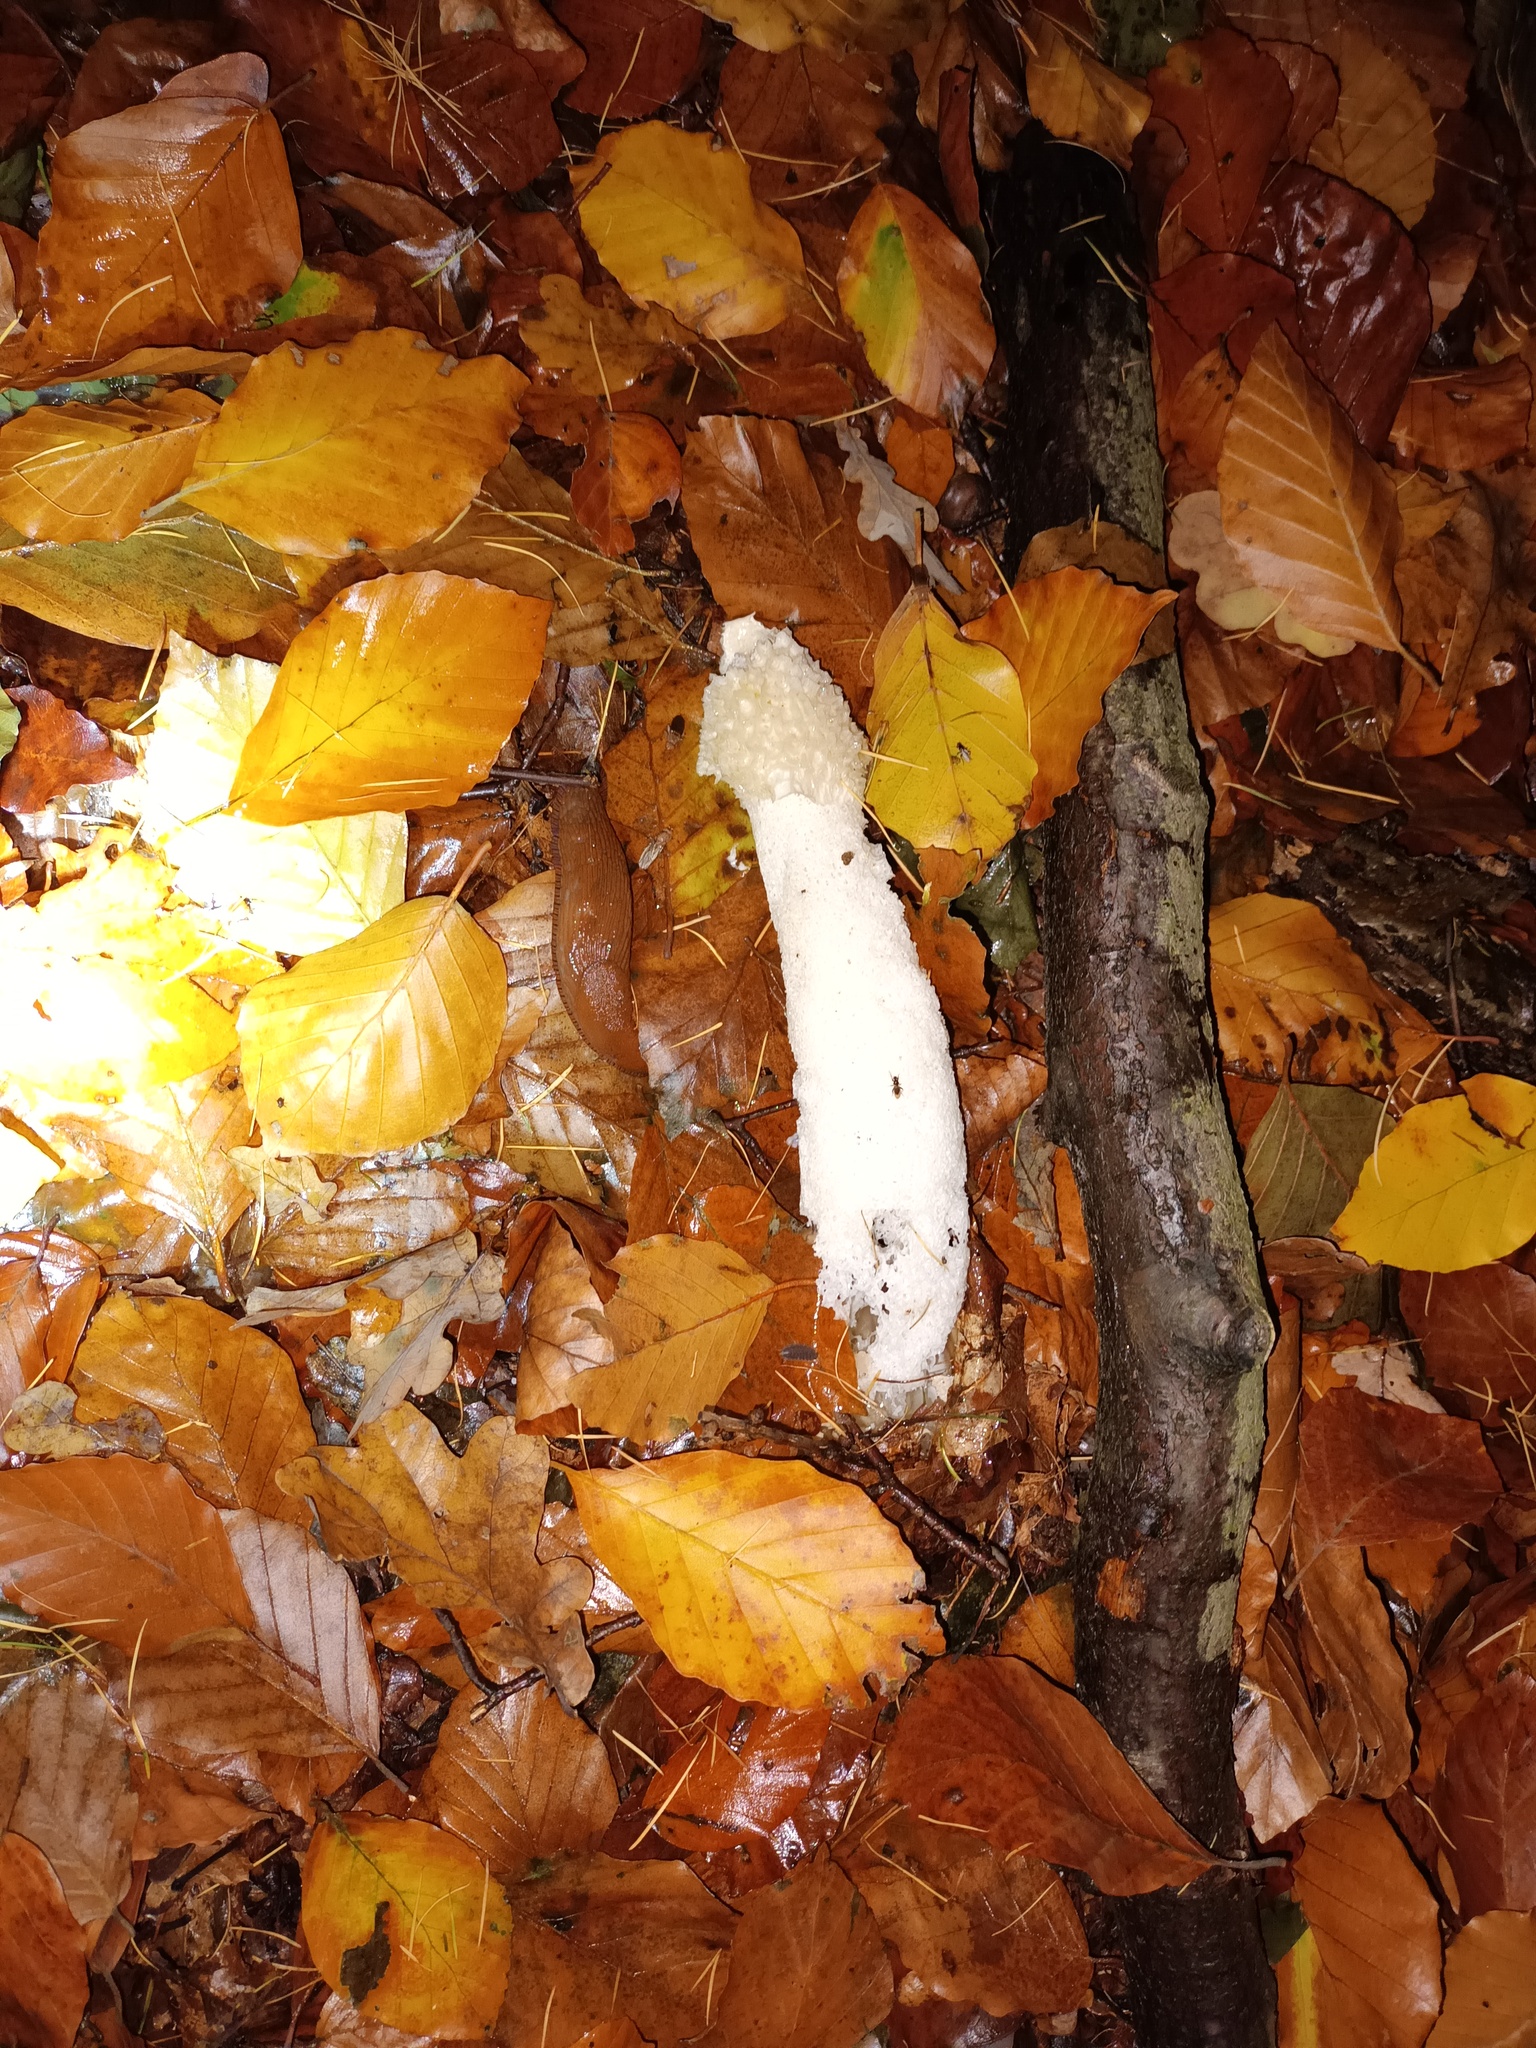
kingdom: Fungi
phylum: Basidiomycota
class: Agaricomycetes
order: Phallales
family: Phallaceae
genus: Phallus
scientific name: Phallus impudicus
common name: Common stinkhorn
